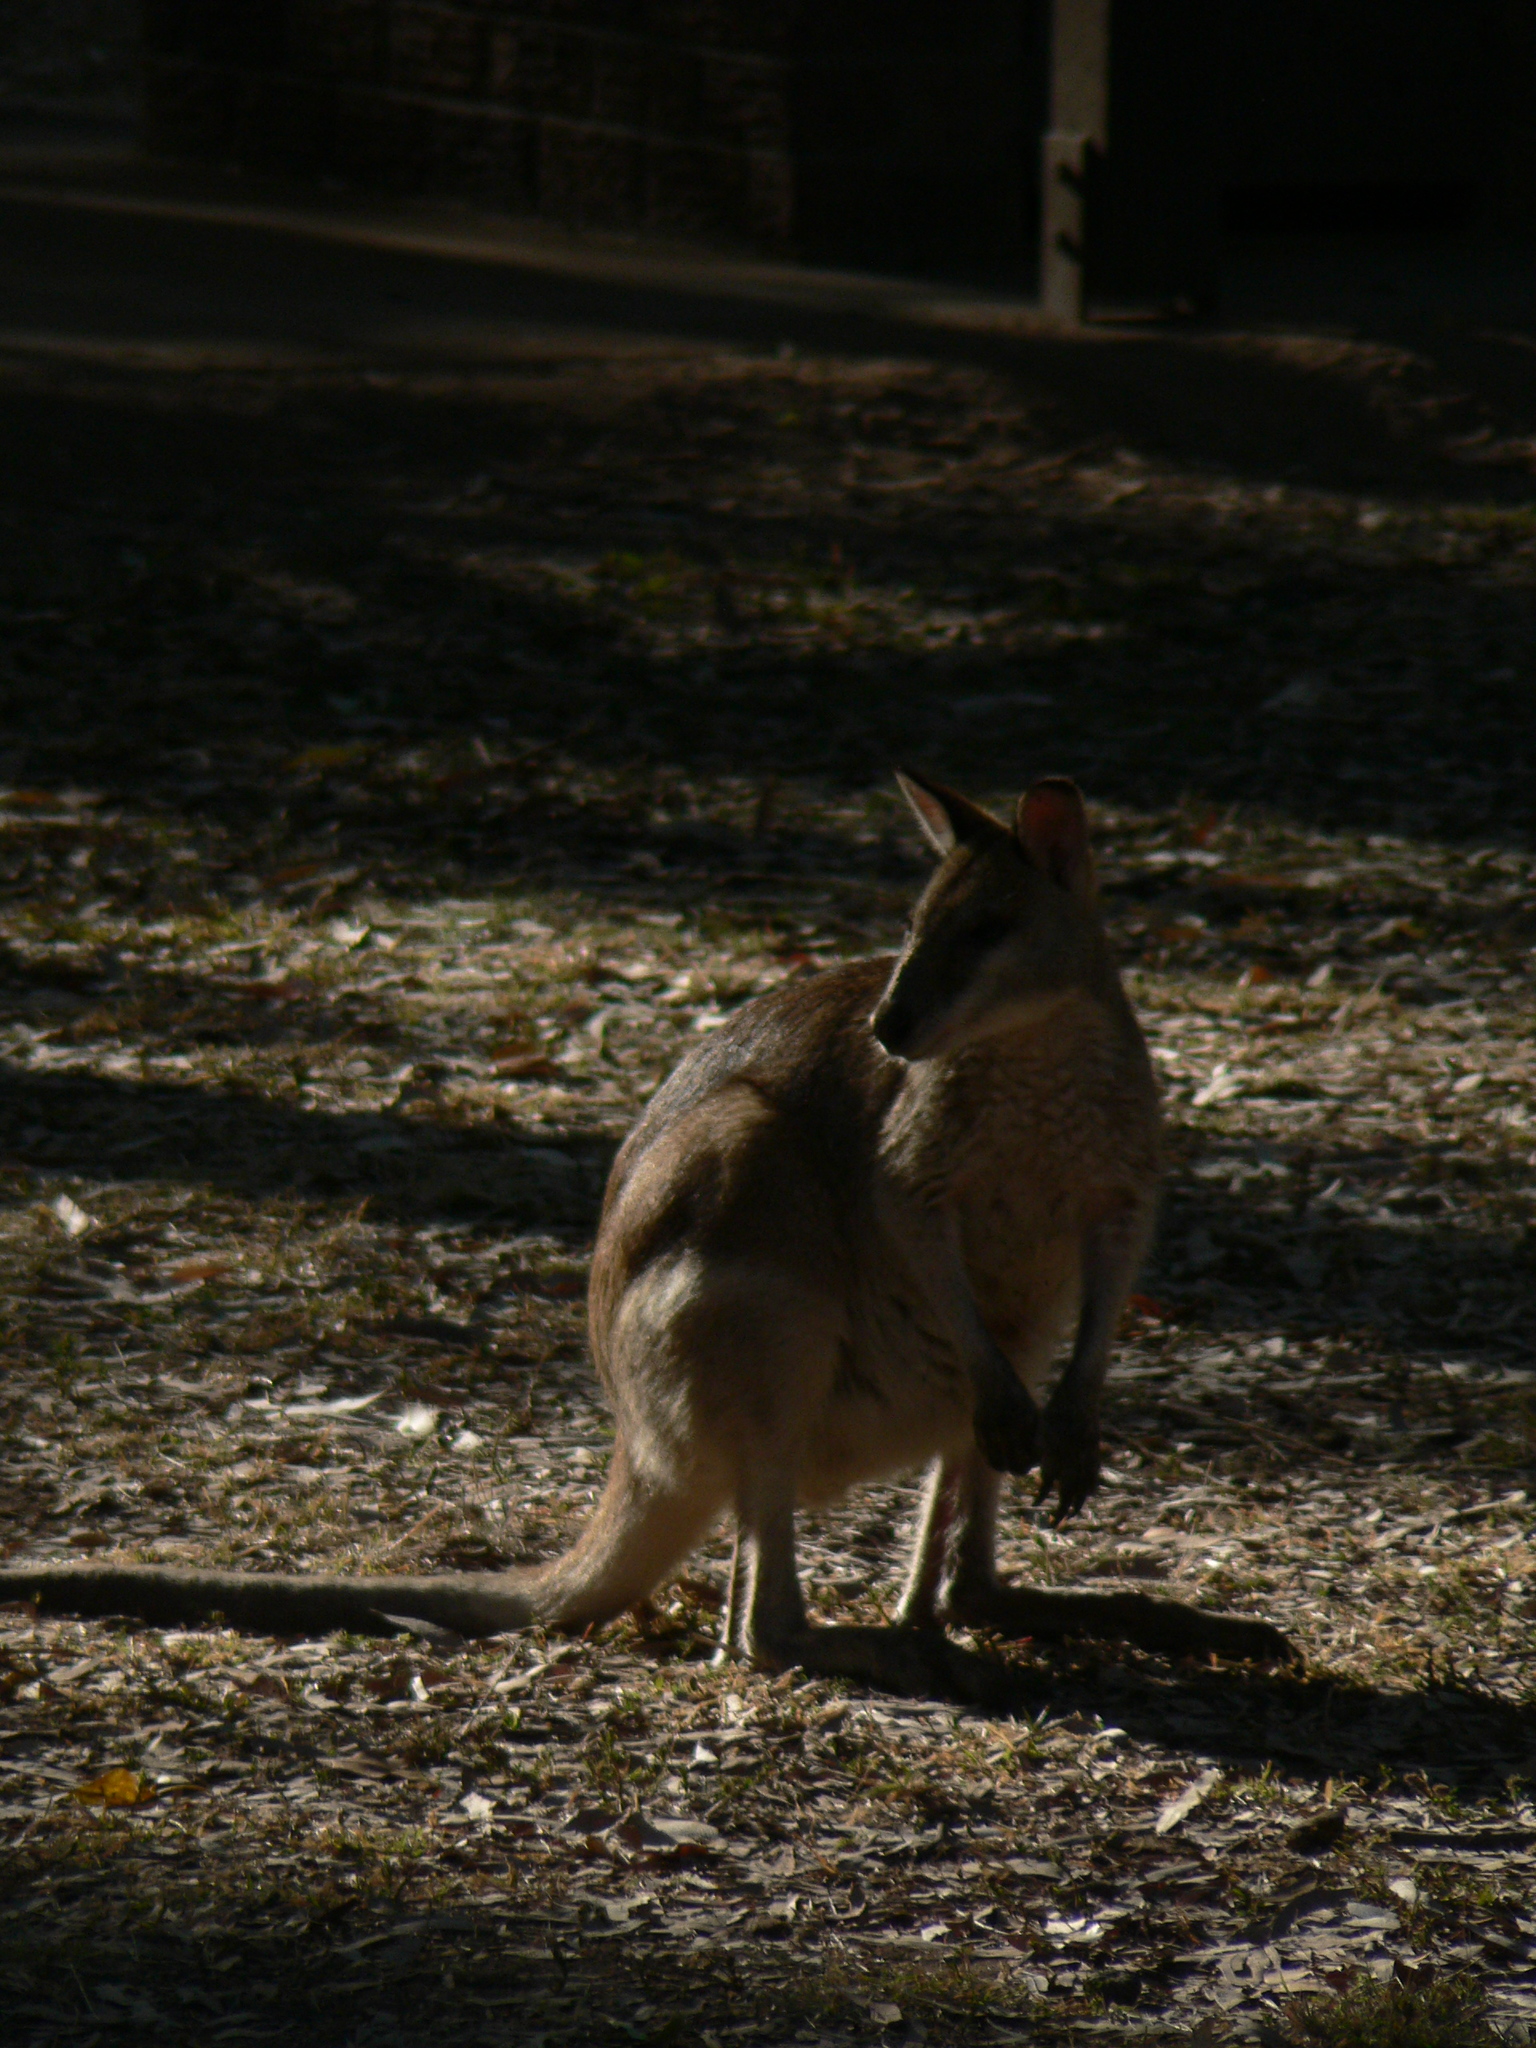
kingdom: Animalia
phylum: Chordata
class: Mammalia
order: Diprotodontia
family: Macropodidae
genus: Macropus
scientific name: Macropus agilis
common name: Agile wallaby
